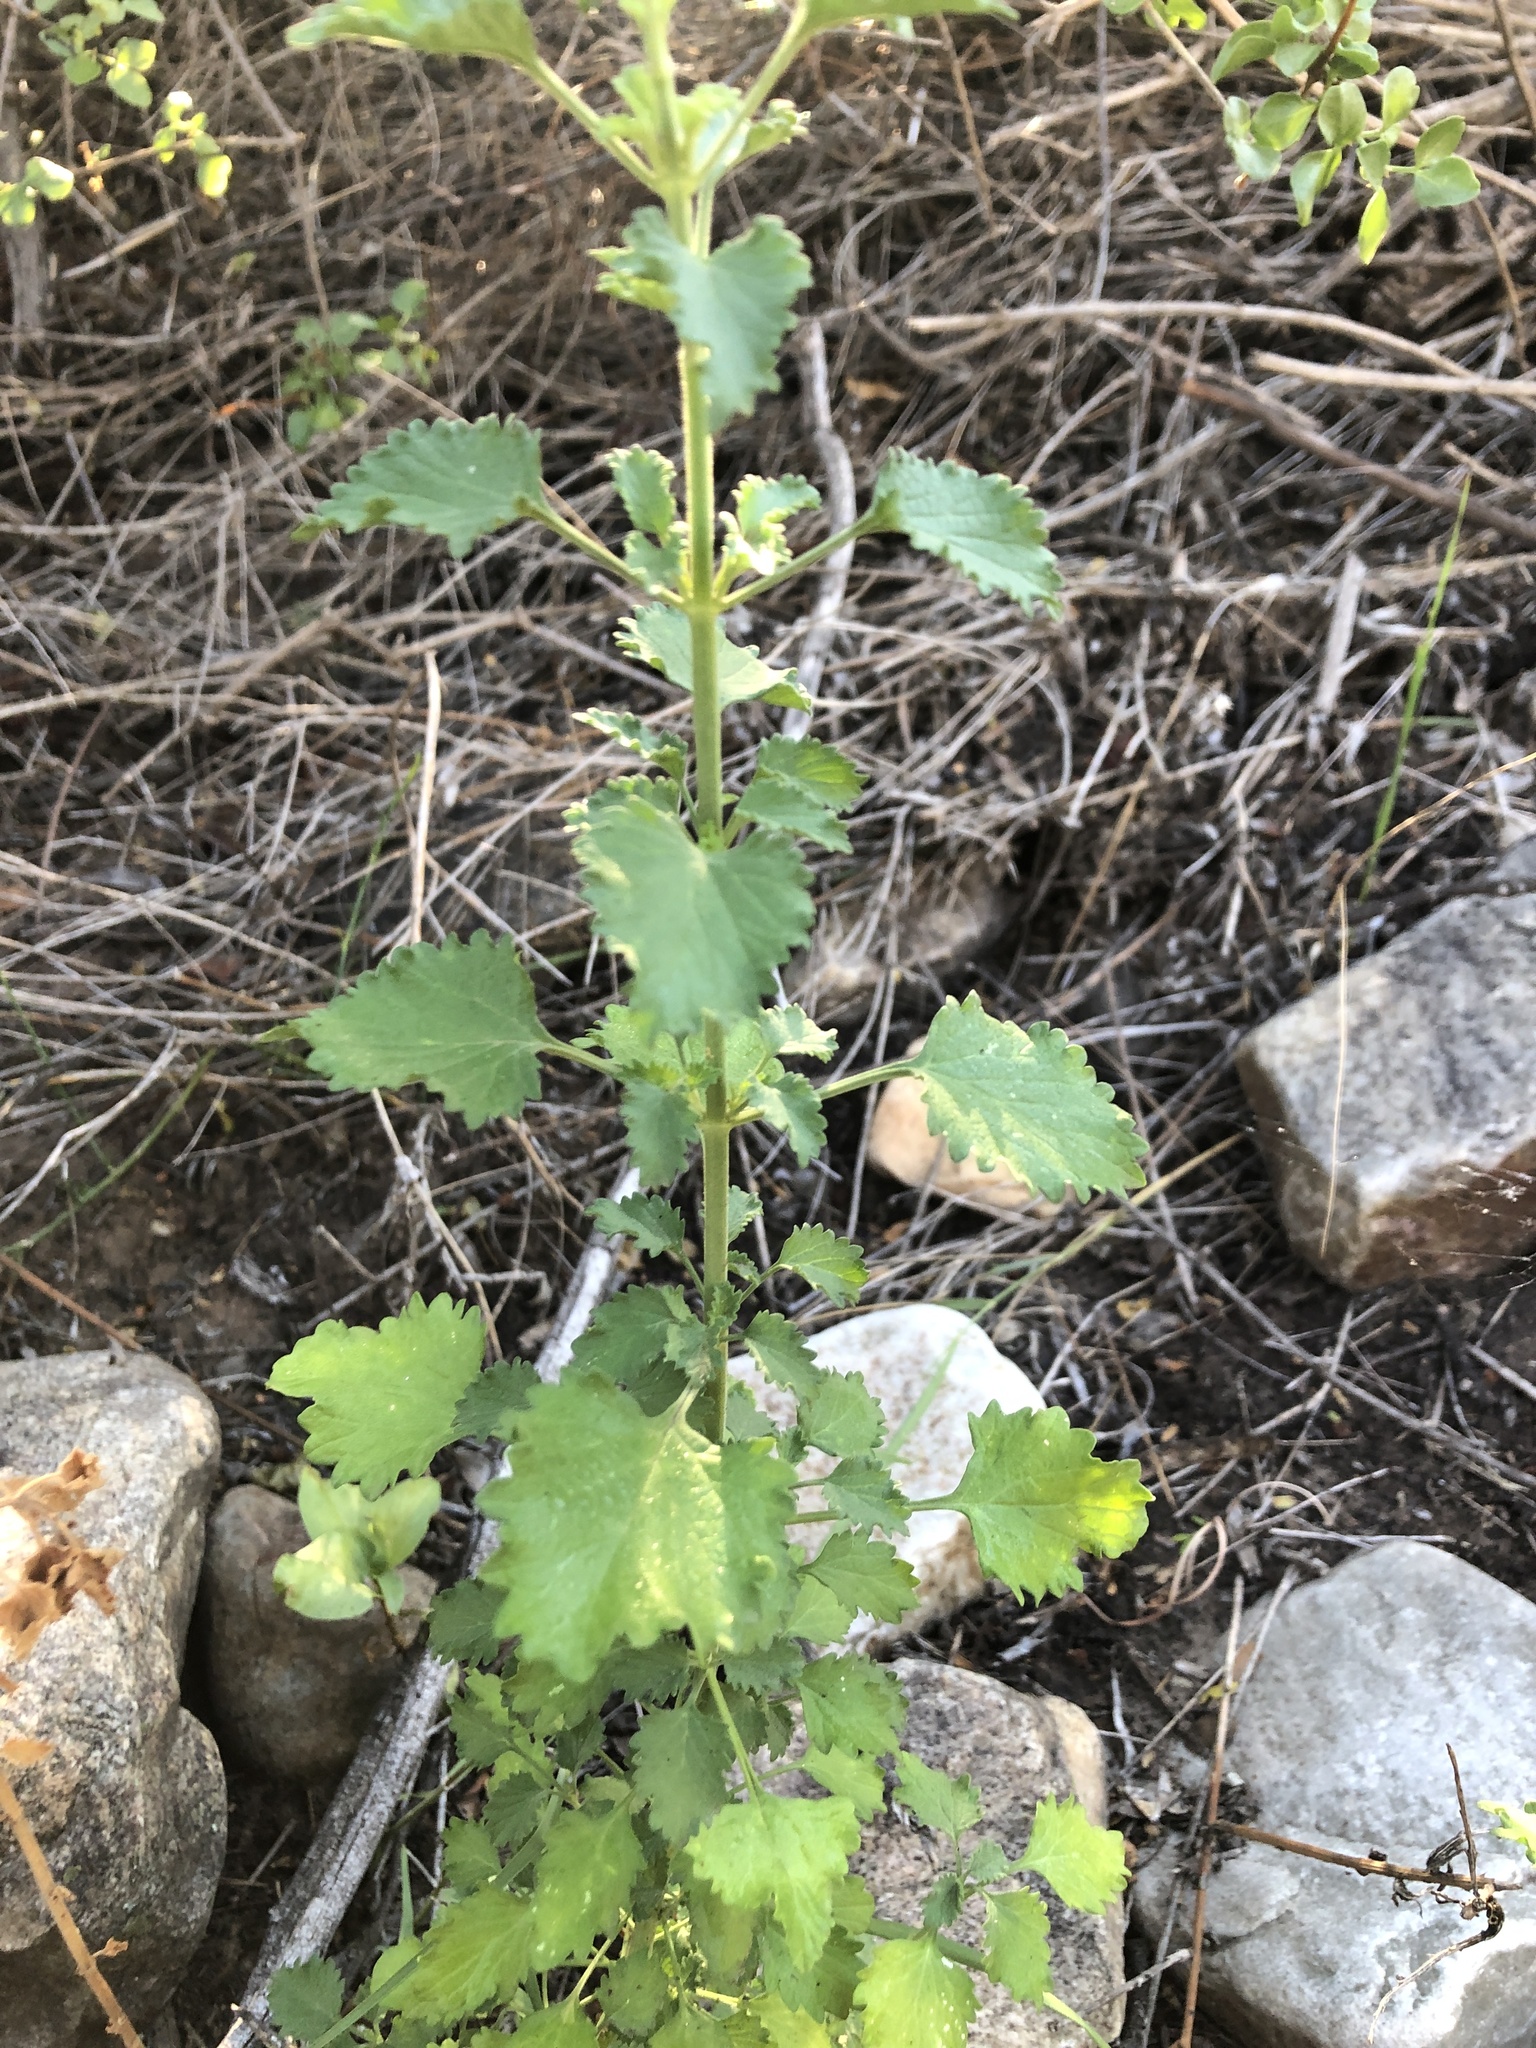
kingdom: Plantae
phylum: Tracheophyta
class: Magnoliopsida
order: Lamiales
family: Lamiaceae
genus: Leonotis
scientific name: Leonotis ocymifolia
